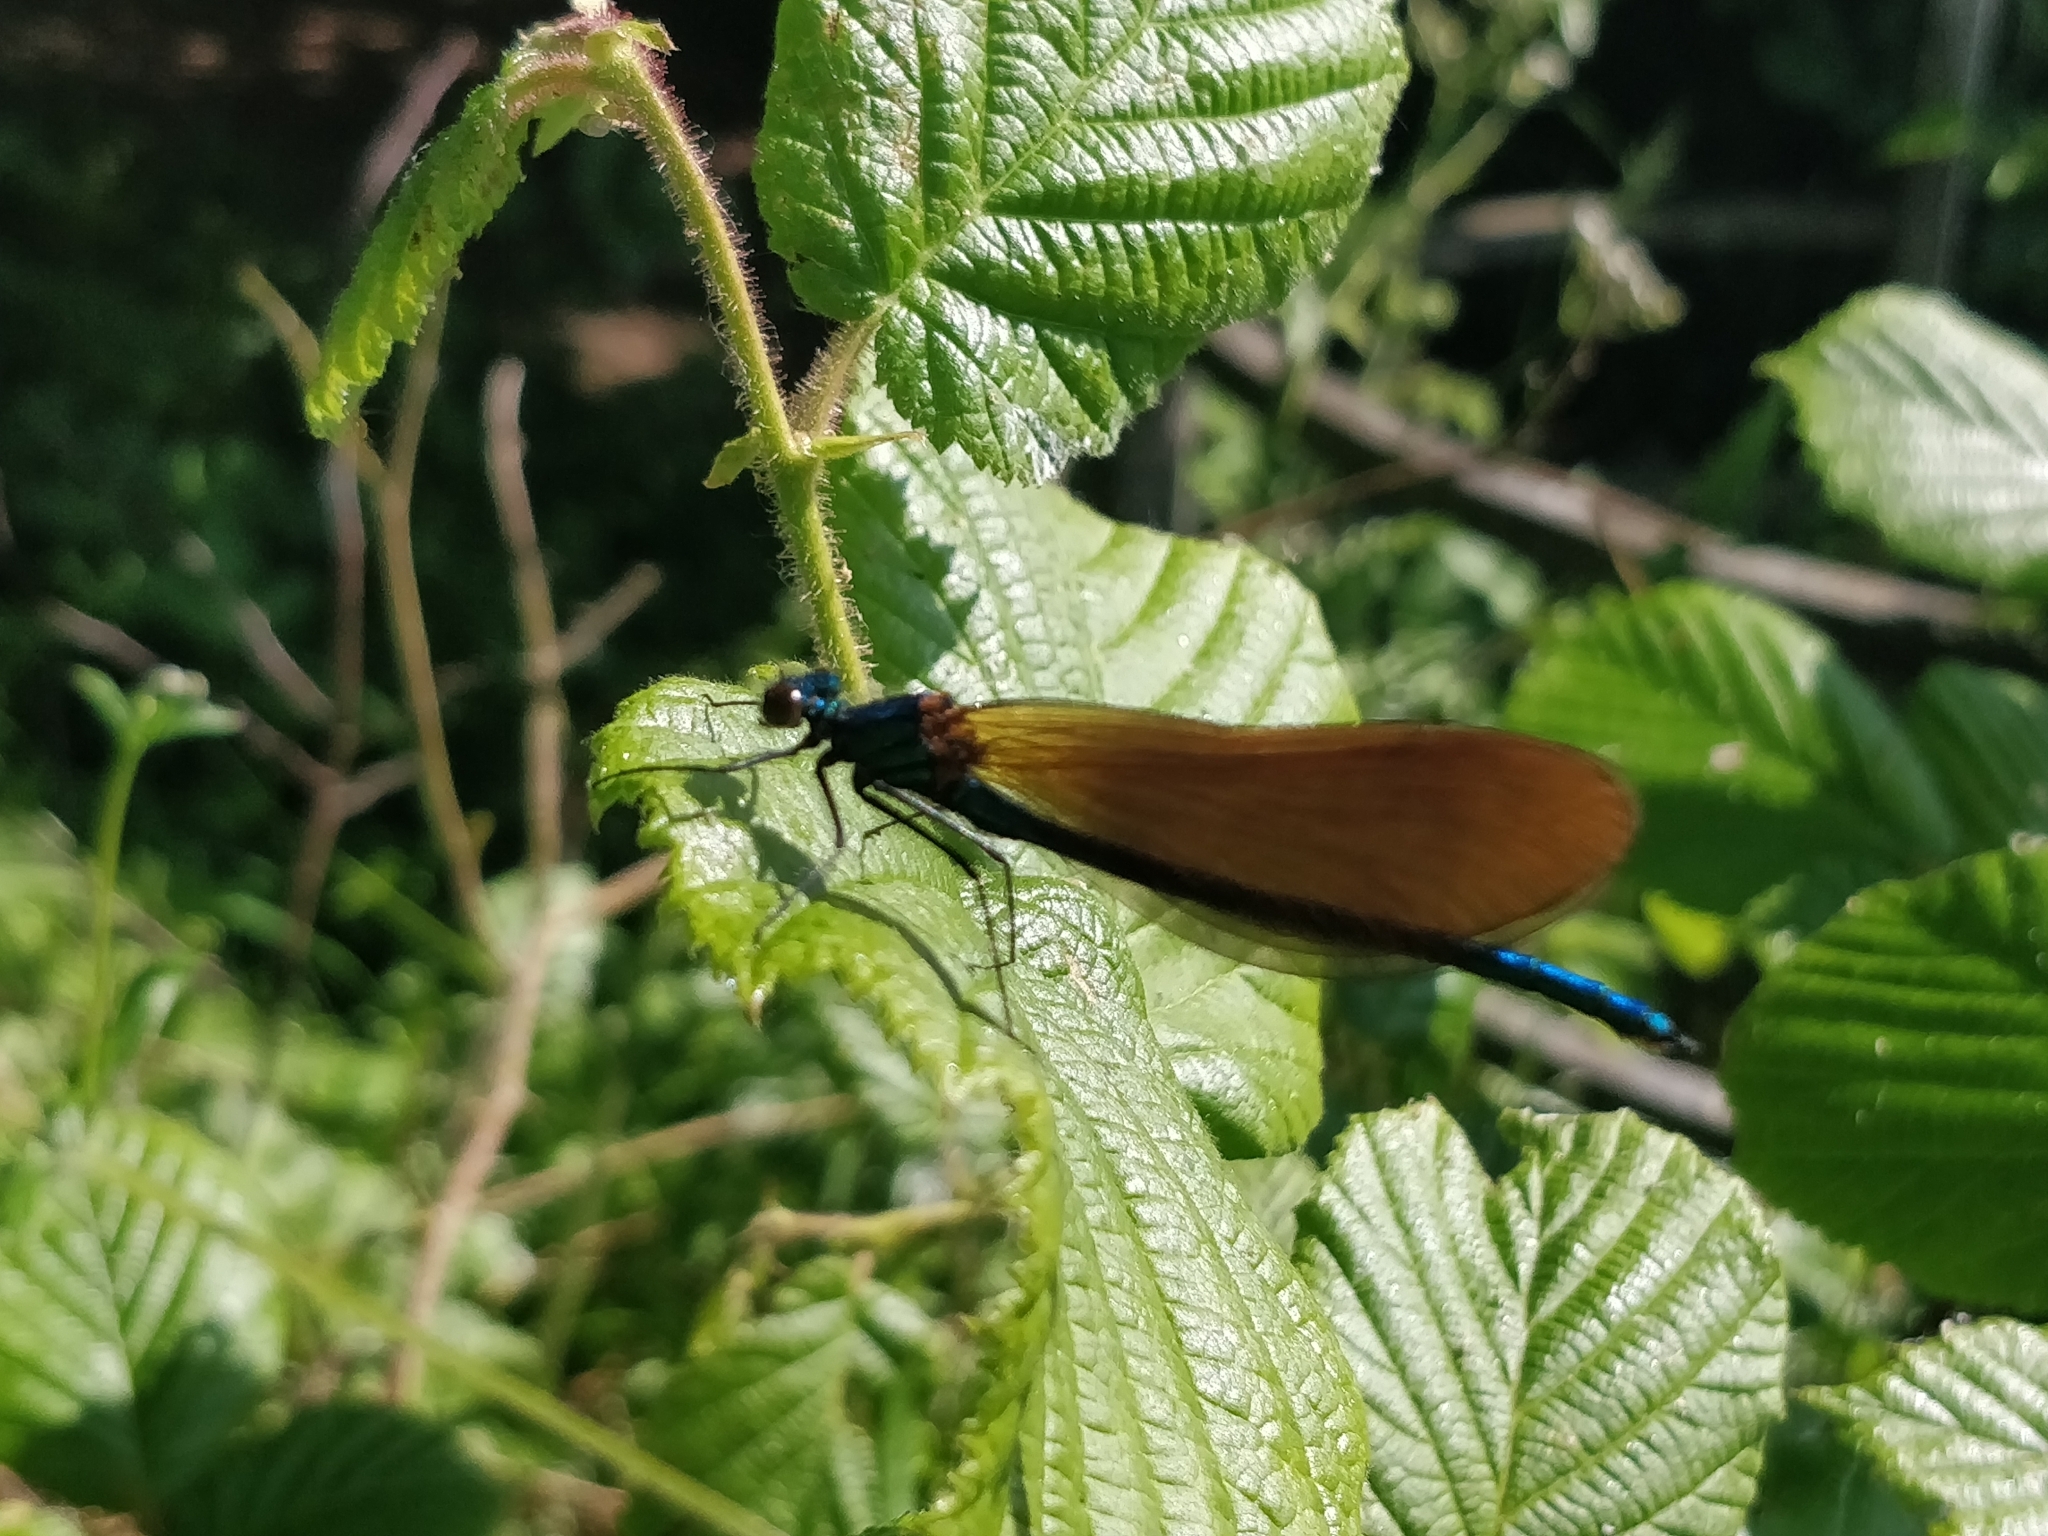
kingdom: Animalia
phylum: Arthropoda
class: Insecta
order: Odonata
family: Calopterygidae
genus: Calopteryx
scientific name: Calopteryx virgo
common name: Beautiful demoiselle
